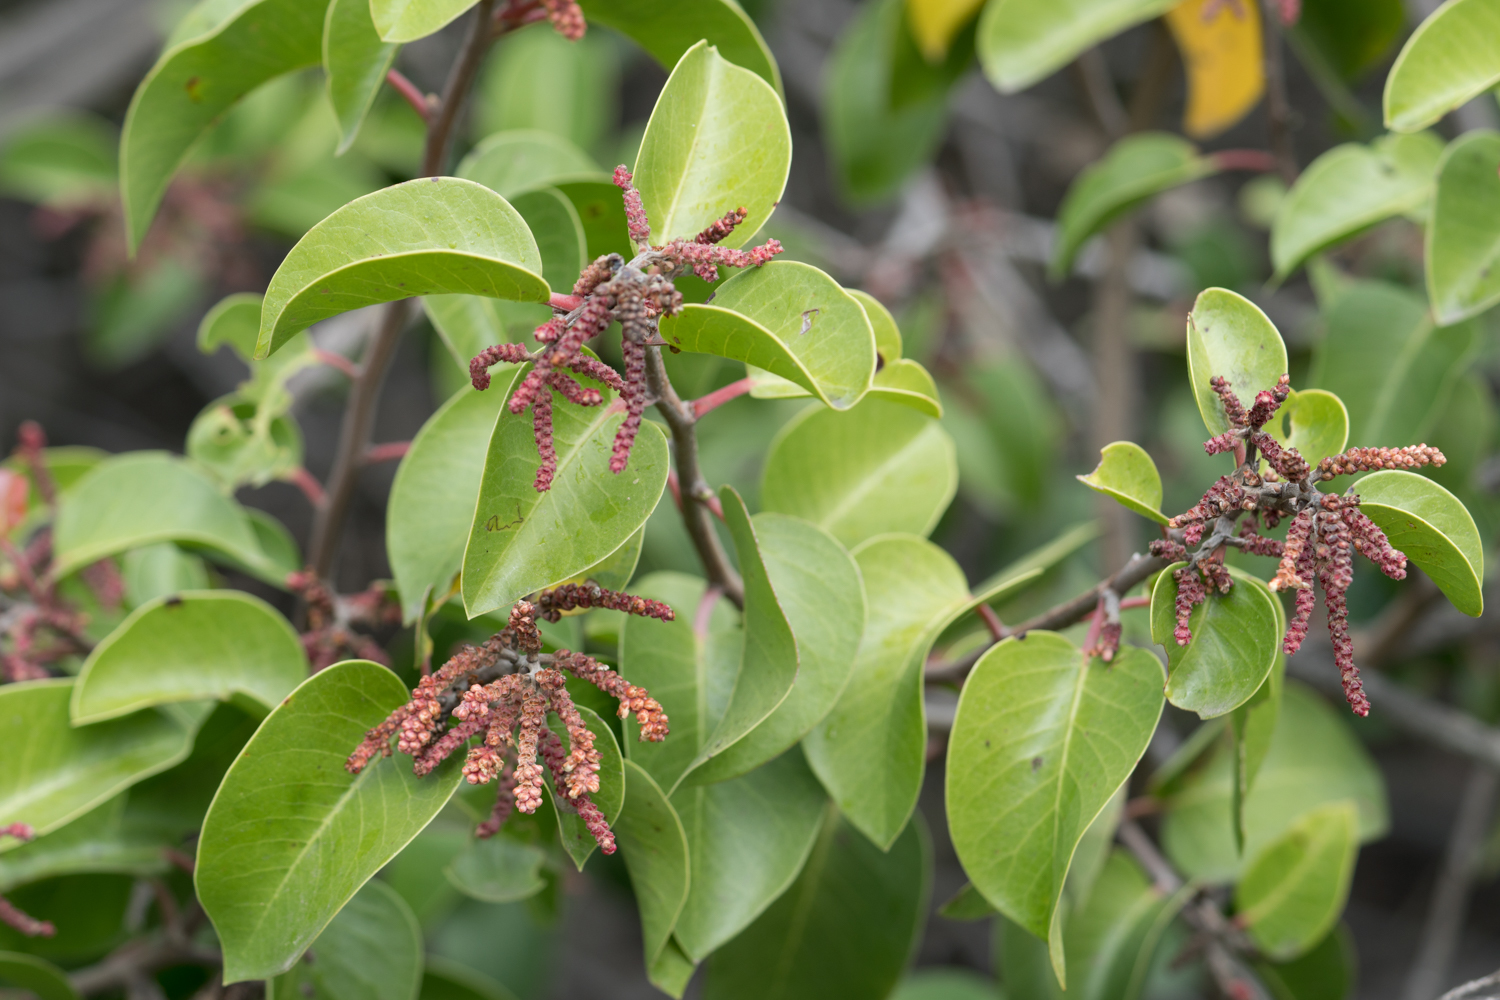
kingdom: Plantae
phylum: Tracheophyta
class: Magnoliopsida
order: Sapindales
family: Anacardiaceae
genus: Rhus
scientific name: Rhus ovata
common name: Sugar sumac
